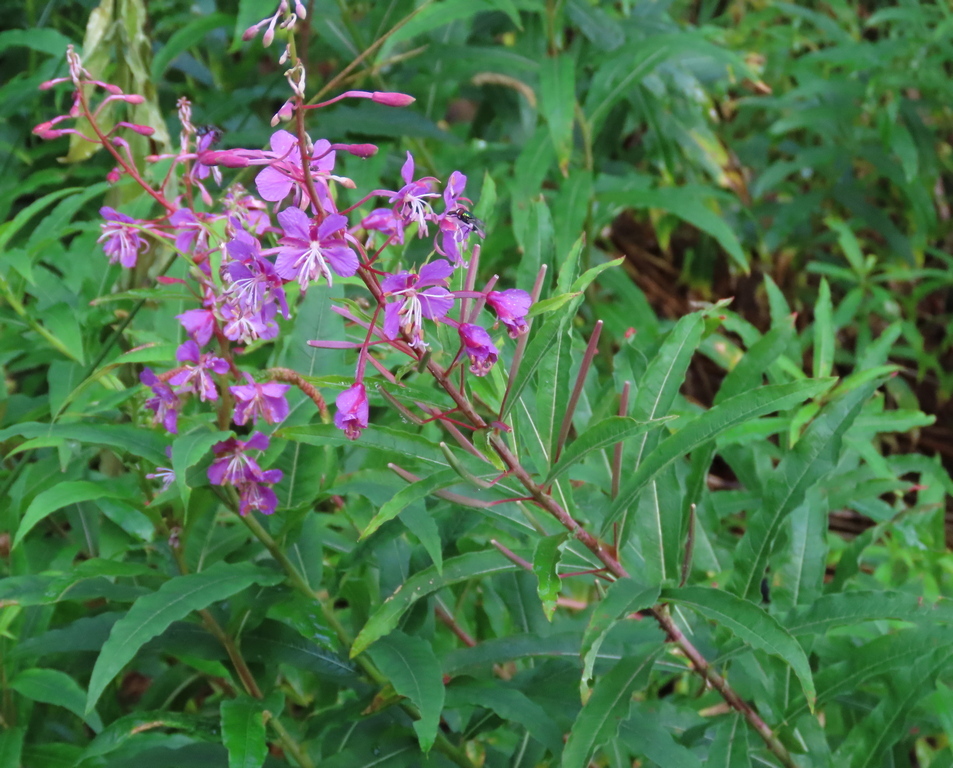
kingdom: Plantae
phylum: Tracheophyta
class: Magnoliopsida
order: Myrtales
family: Onagraceae
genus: Chamaenerion
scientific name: Chamaenerion angustifolium
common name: Fireweed
